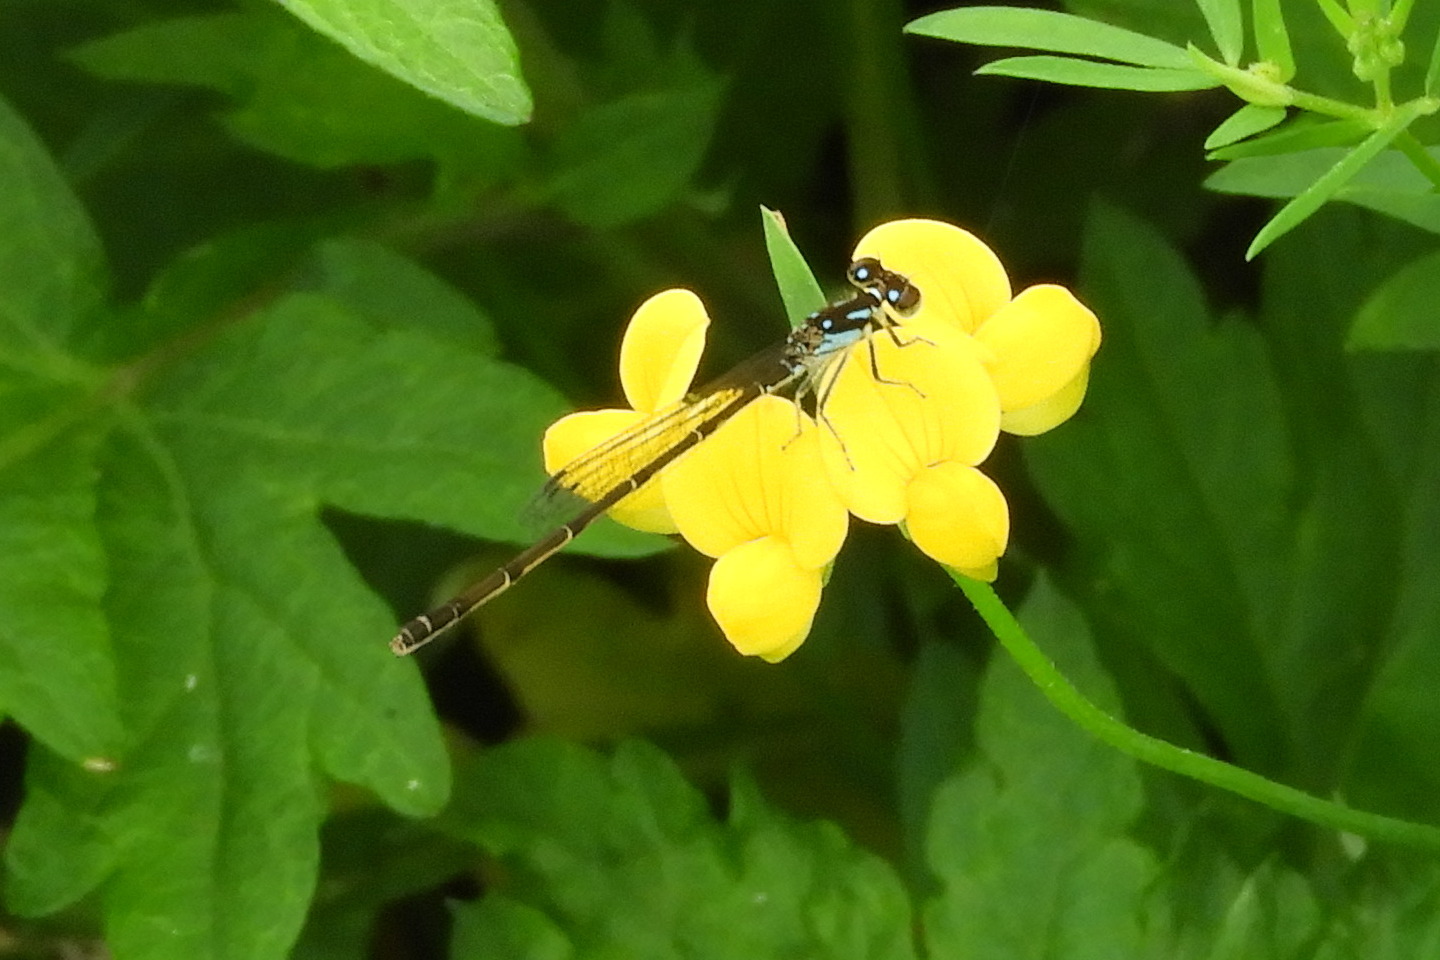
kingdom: Animalia
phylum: Arthropoda
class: Insecta
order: Odonata
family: Coenagrionidae
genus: Ischnura
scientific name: Ischnura posita
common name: Fragile forktail
